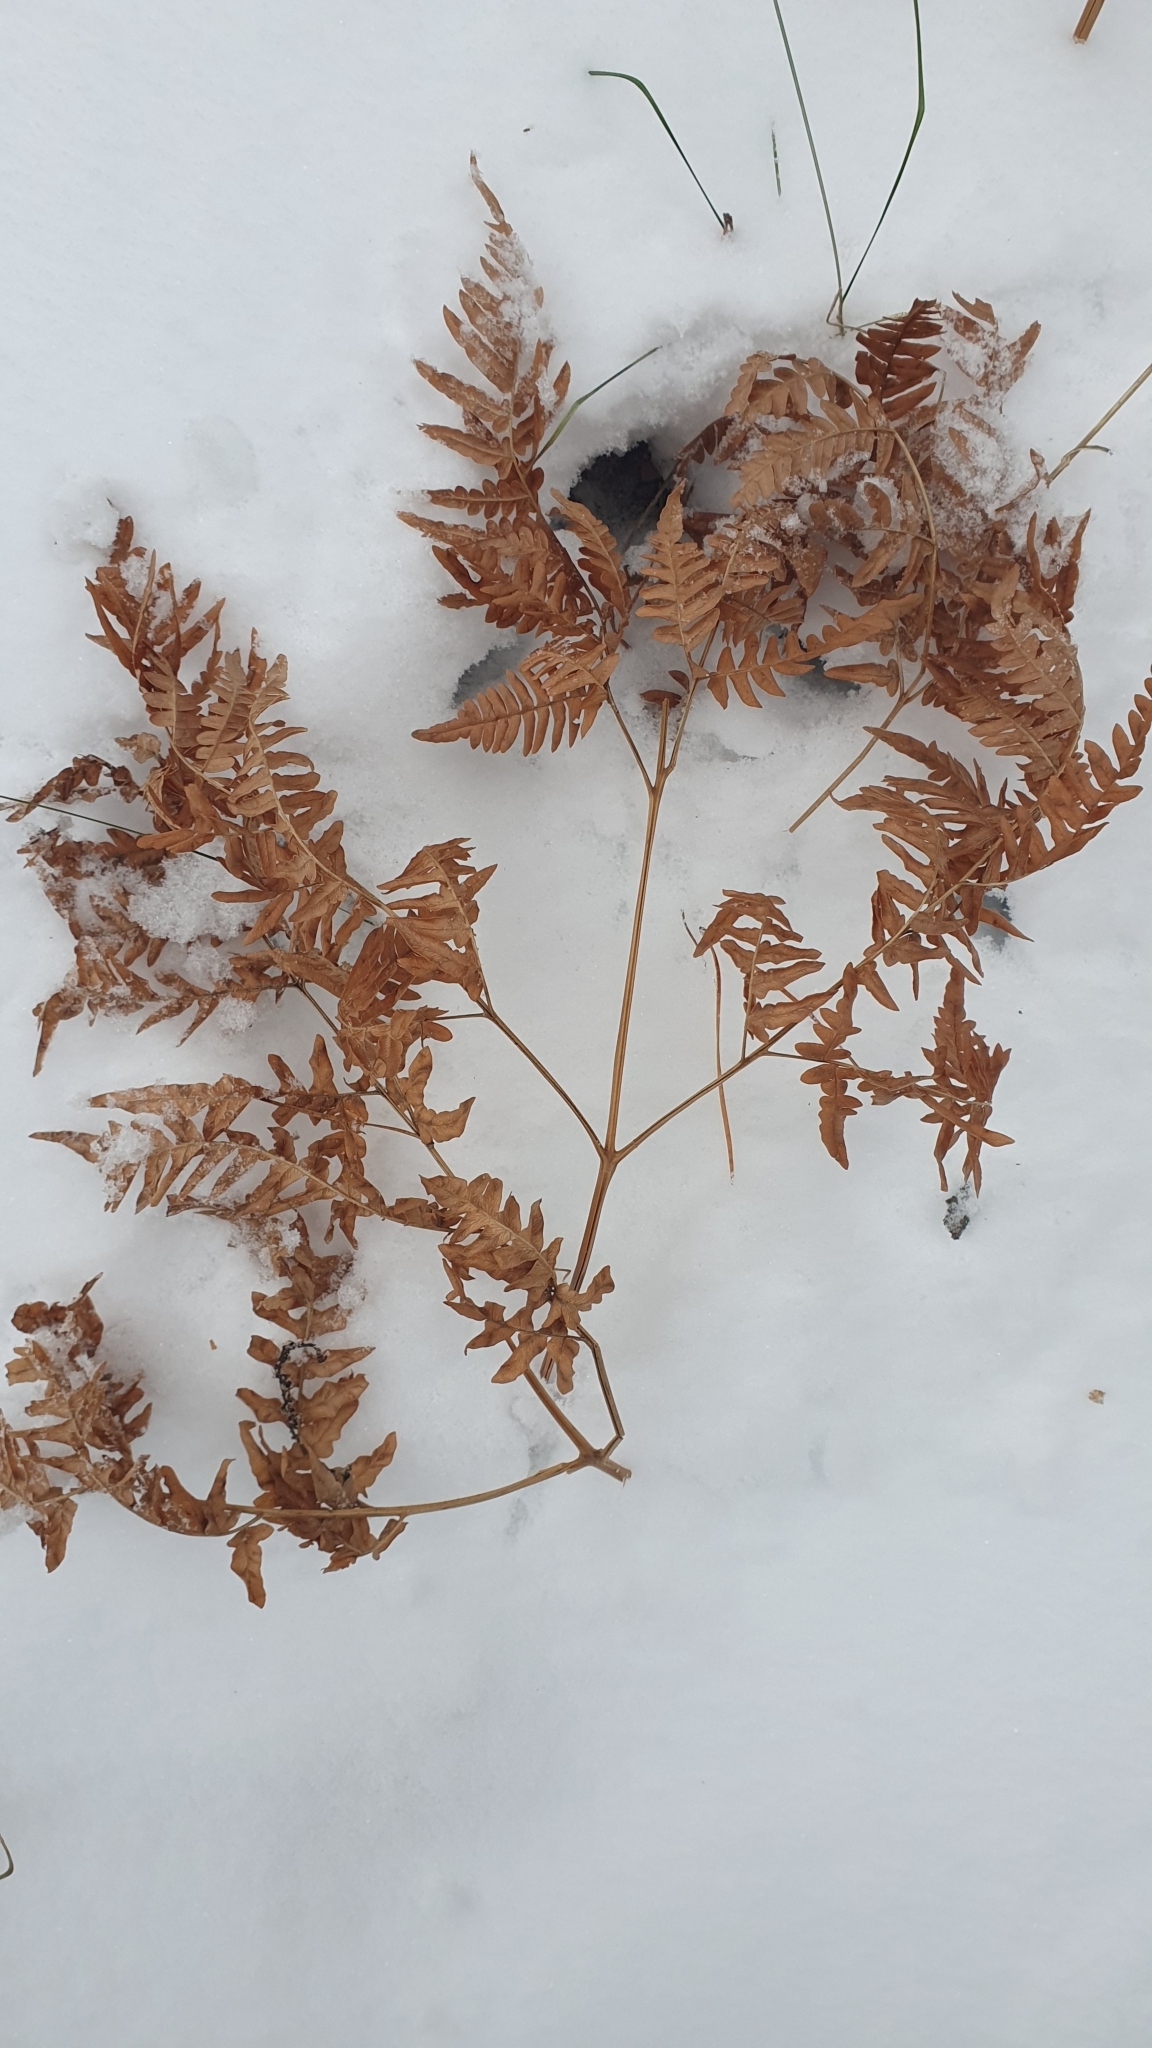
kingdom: Plantae
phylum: Tracheophyta
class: Polypodiopsida
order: Polypodiales
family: Dennstaedtiaceae
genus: Pteridium
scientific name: Pteridium aquilinum
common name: Bracken
